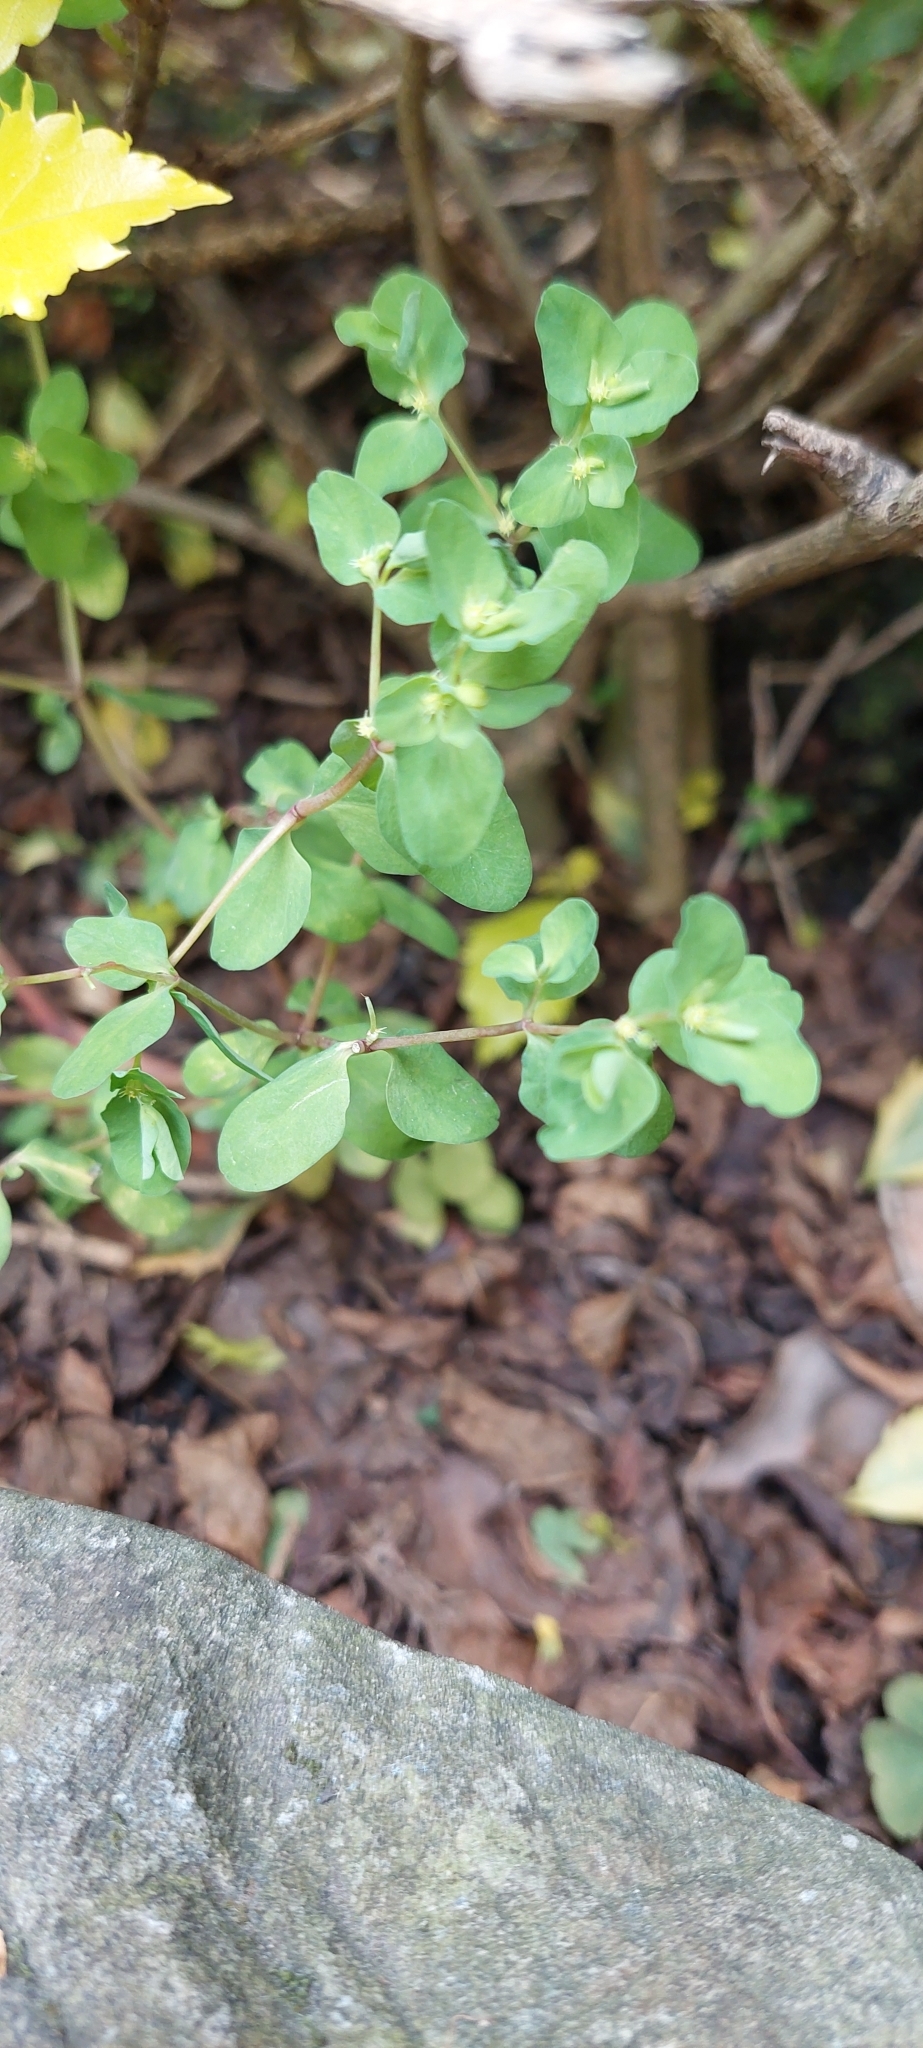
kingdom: Plantae
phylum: Tracheophyta
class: Magnoliopsida
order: Malpighiales
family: Euphorbiaceae
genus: Euphorbia
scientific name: Euphorbia peplus
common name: Petty spurge
